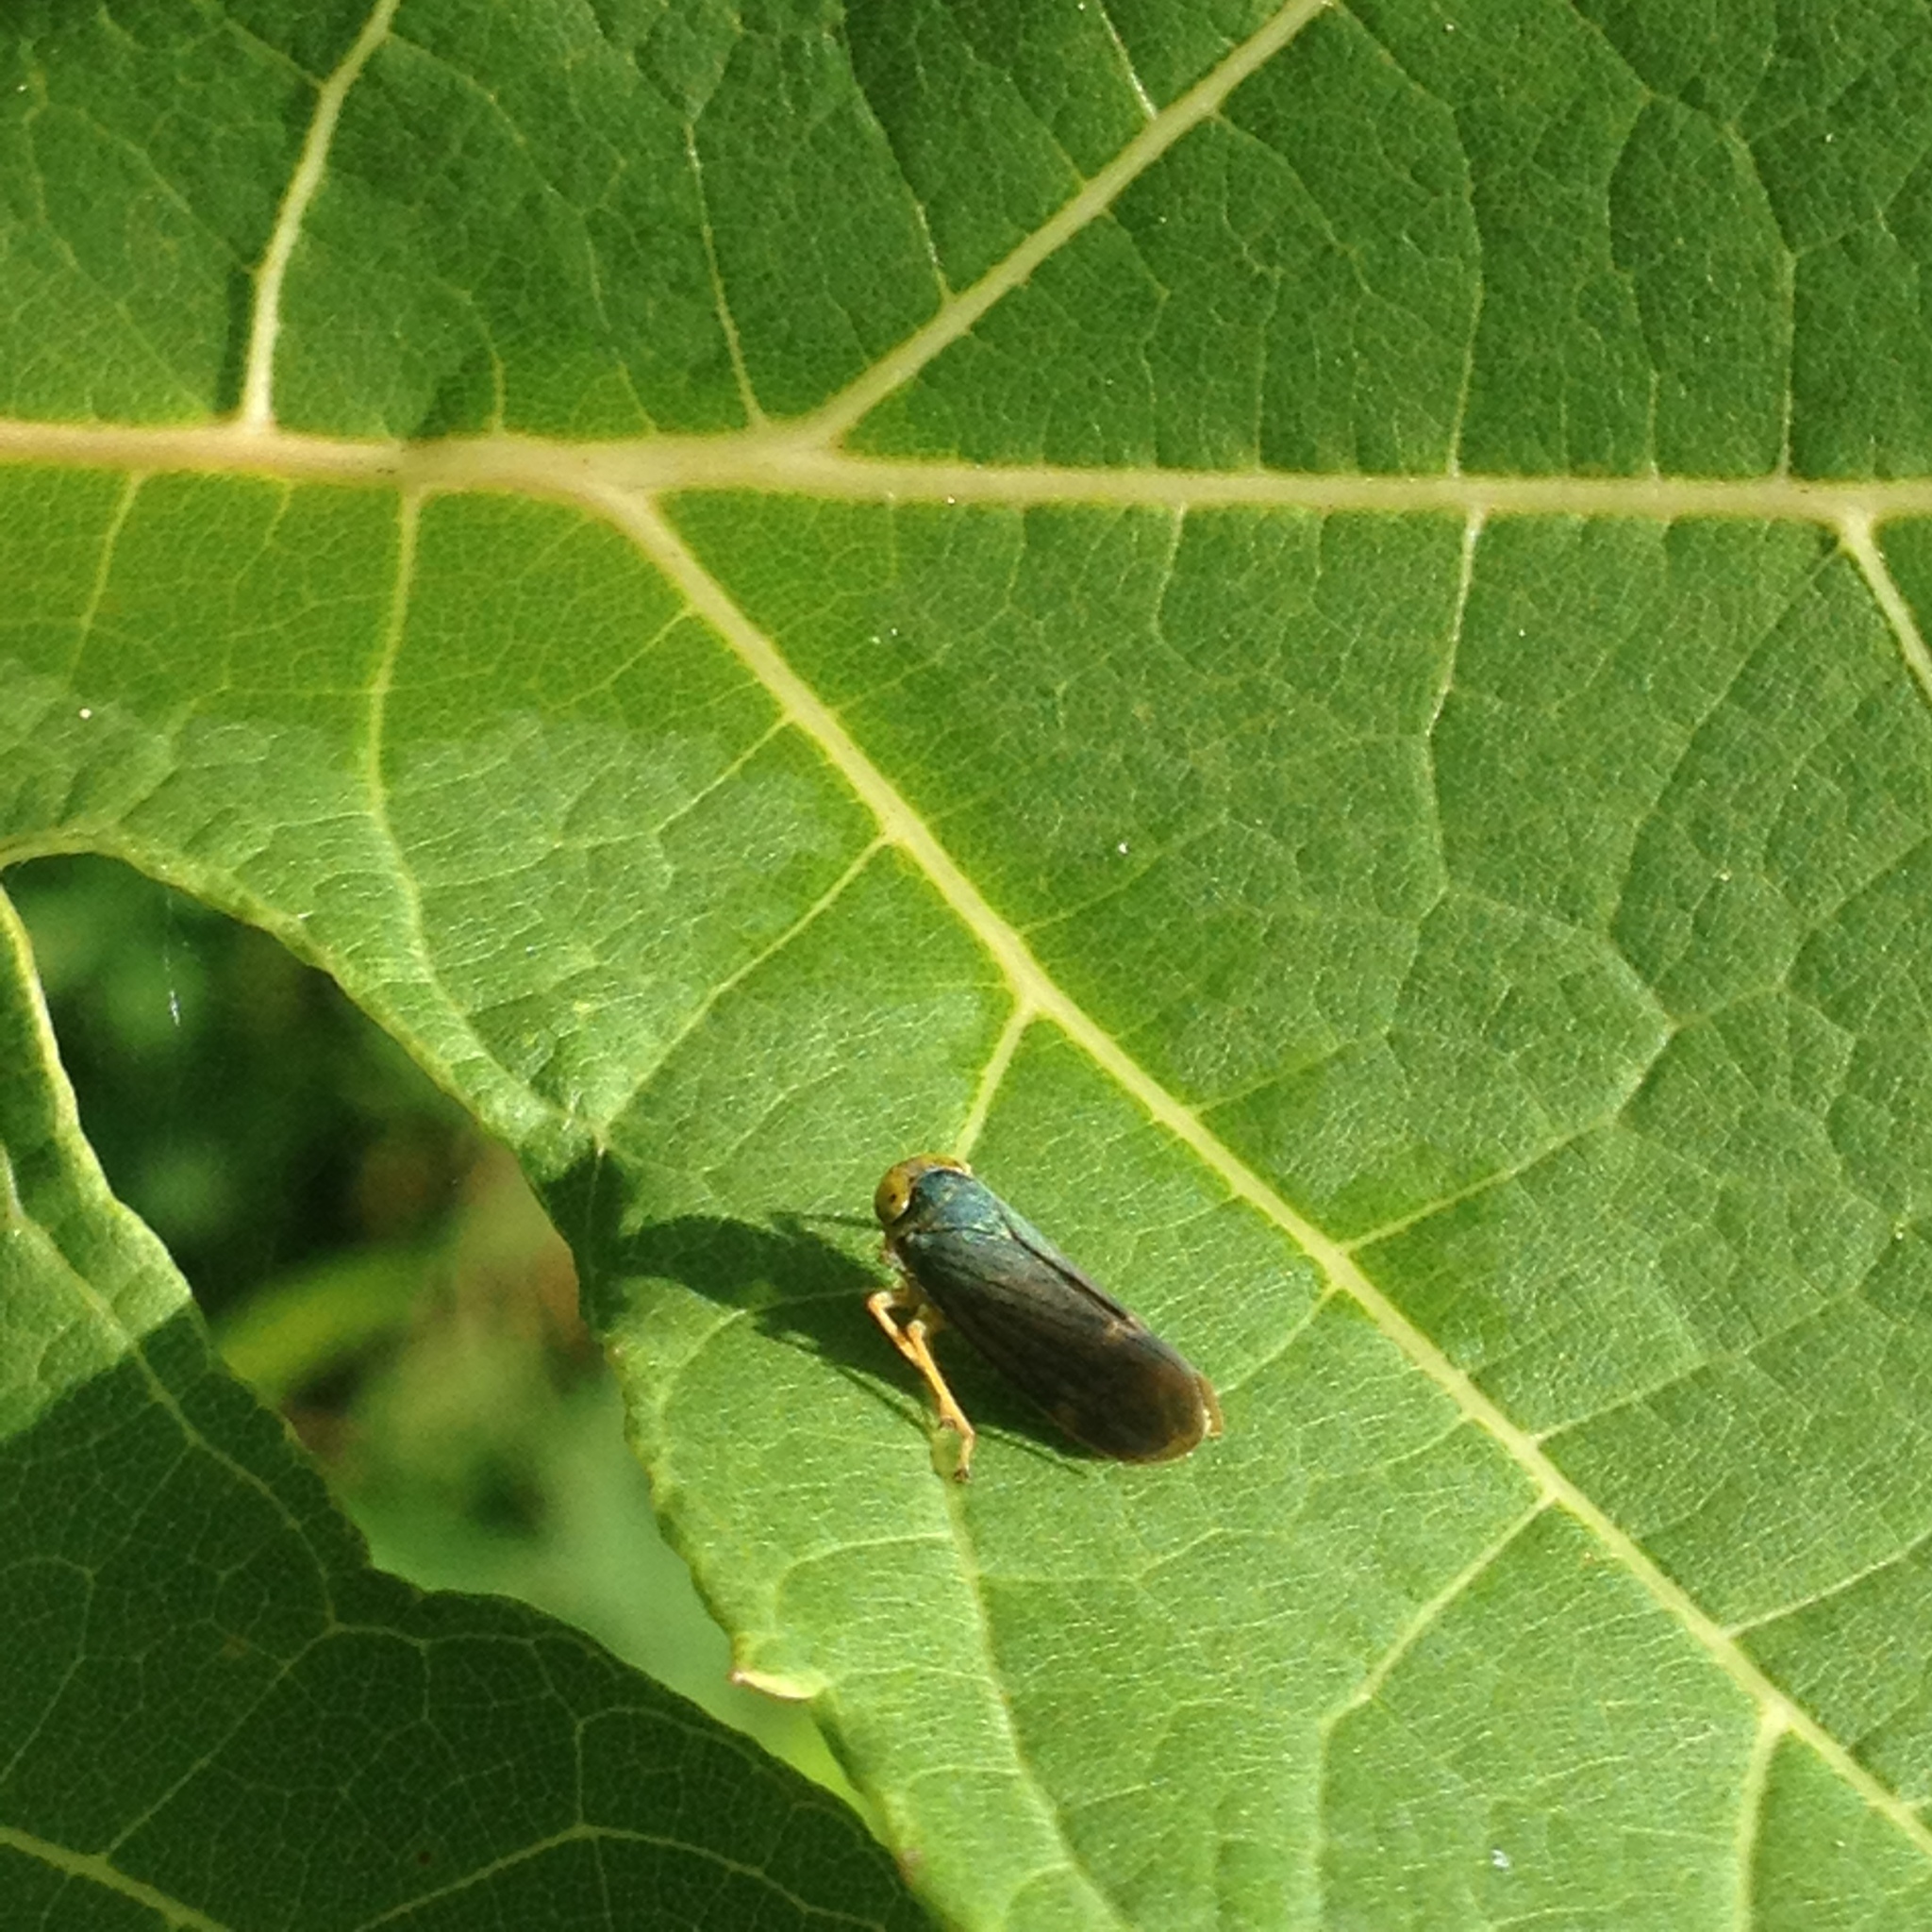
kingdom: Animalia
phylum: Arthropoda
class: Insecta
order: Hemiptera
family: Cicadellidae
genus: Jikradia
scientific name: Jikradia olitoria
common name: Coppery leafhopper
